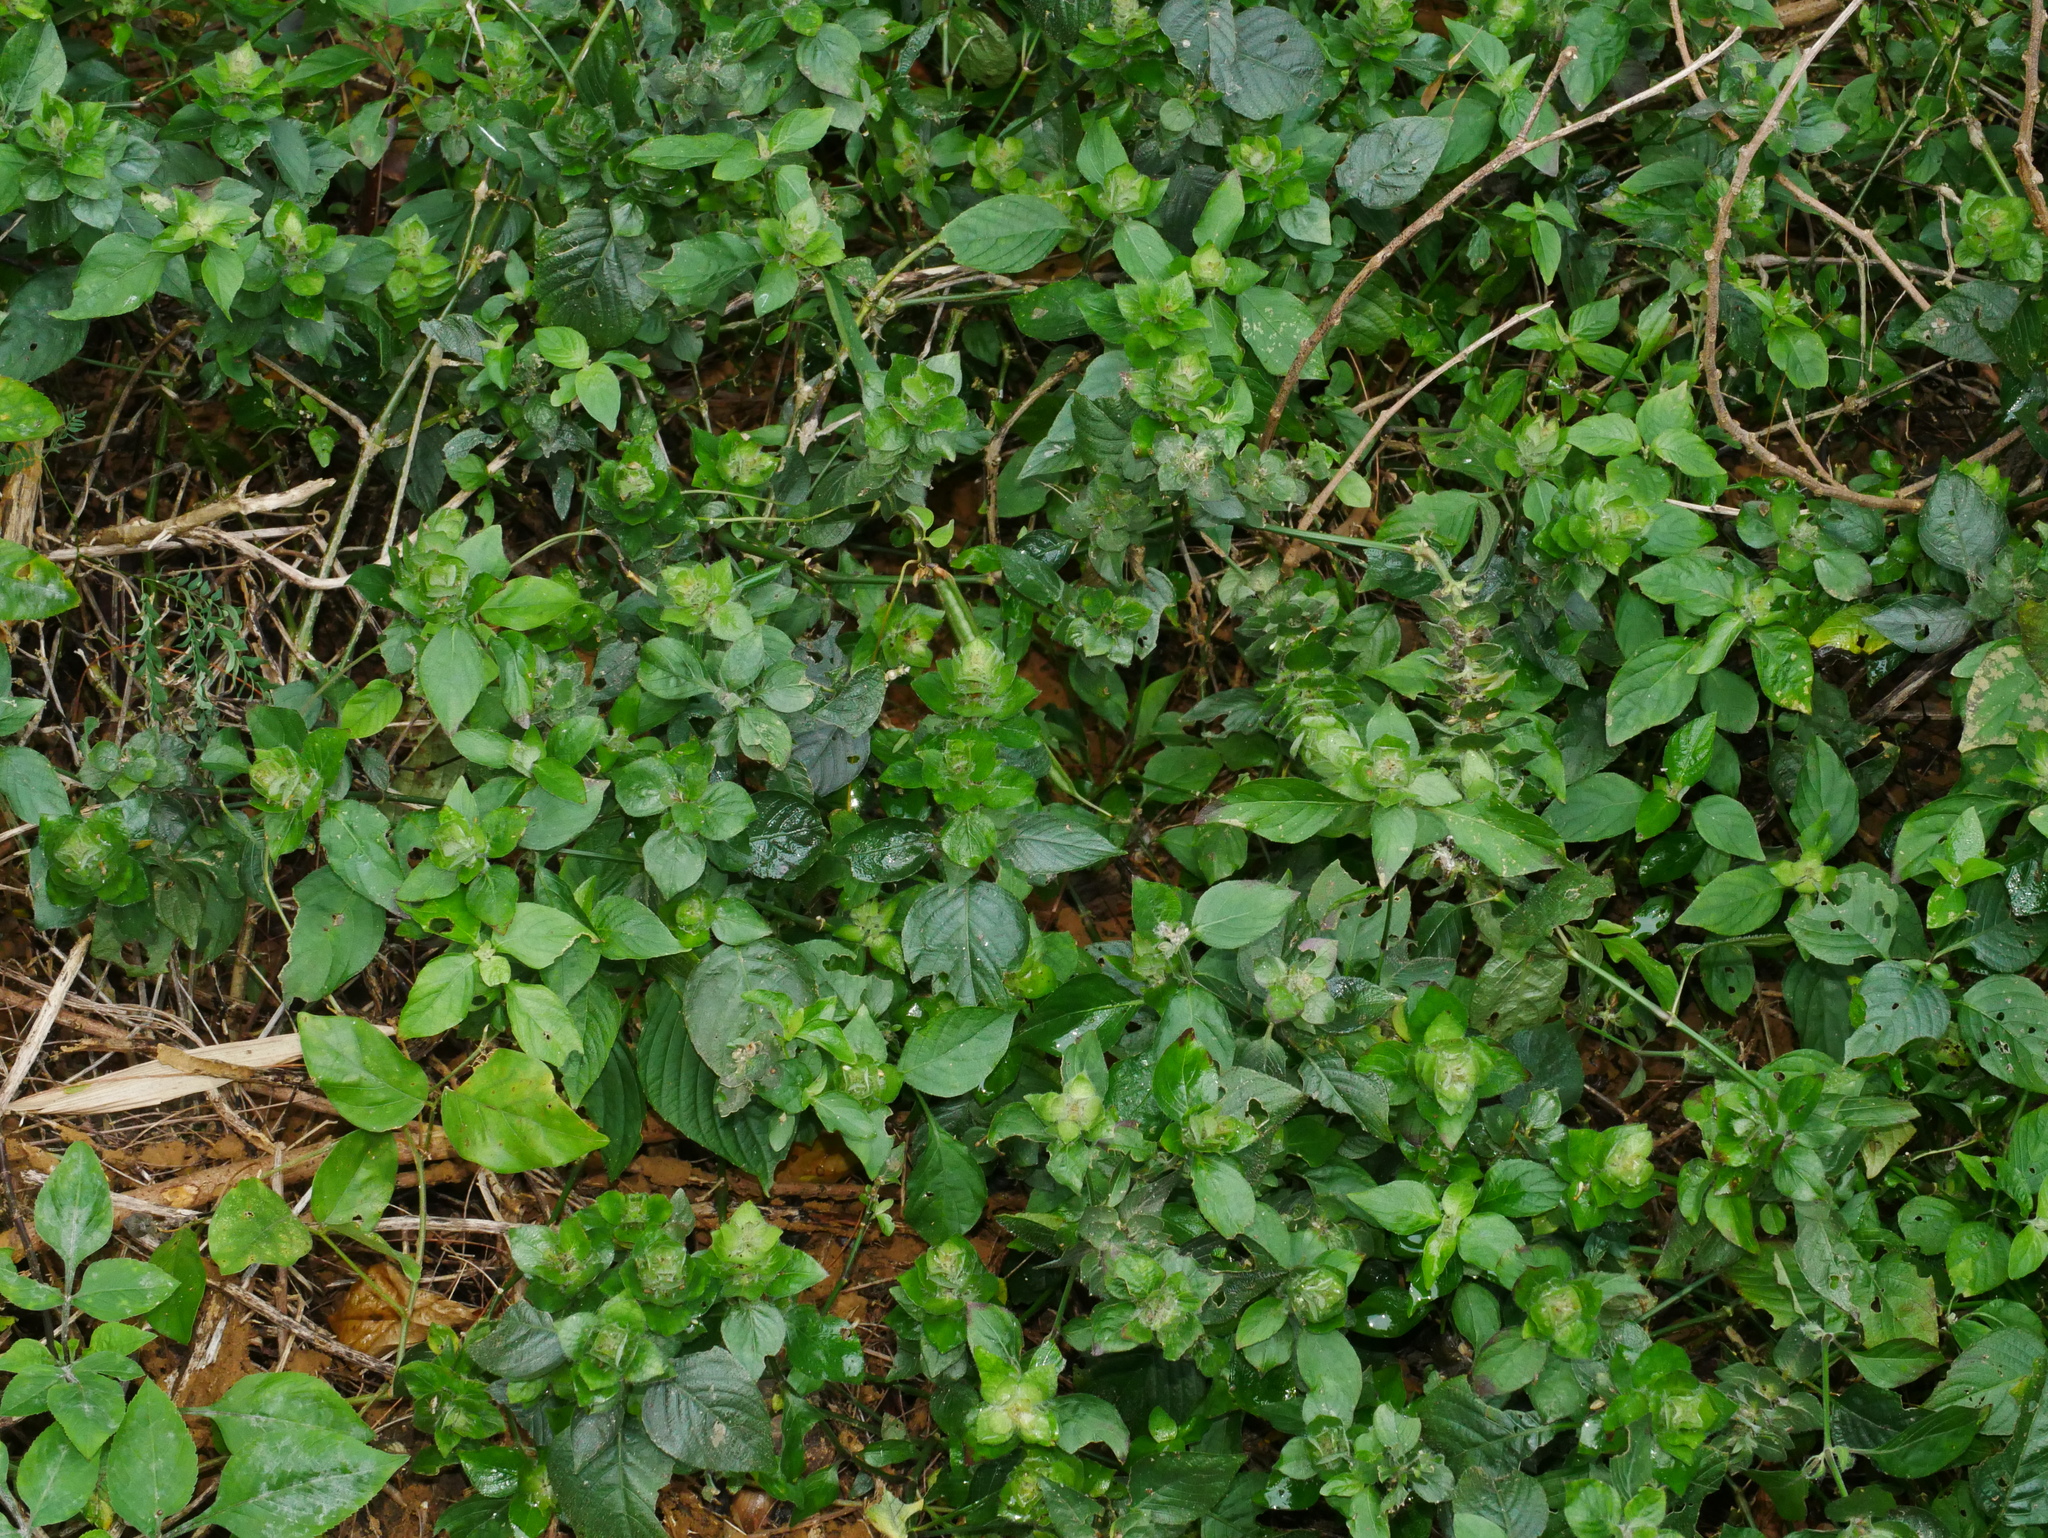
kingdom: Plantae
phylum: Tracheophyta
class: Magnoliopsida
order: Lamiales
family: Acanthaceae
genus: Ruellia
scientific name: Ruellia blechum
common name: Browne's blechum
